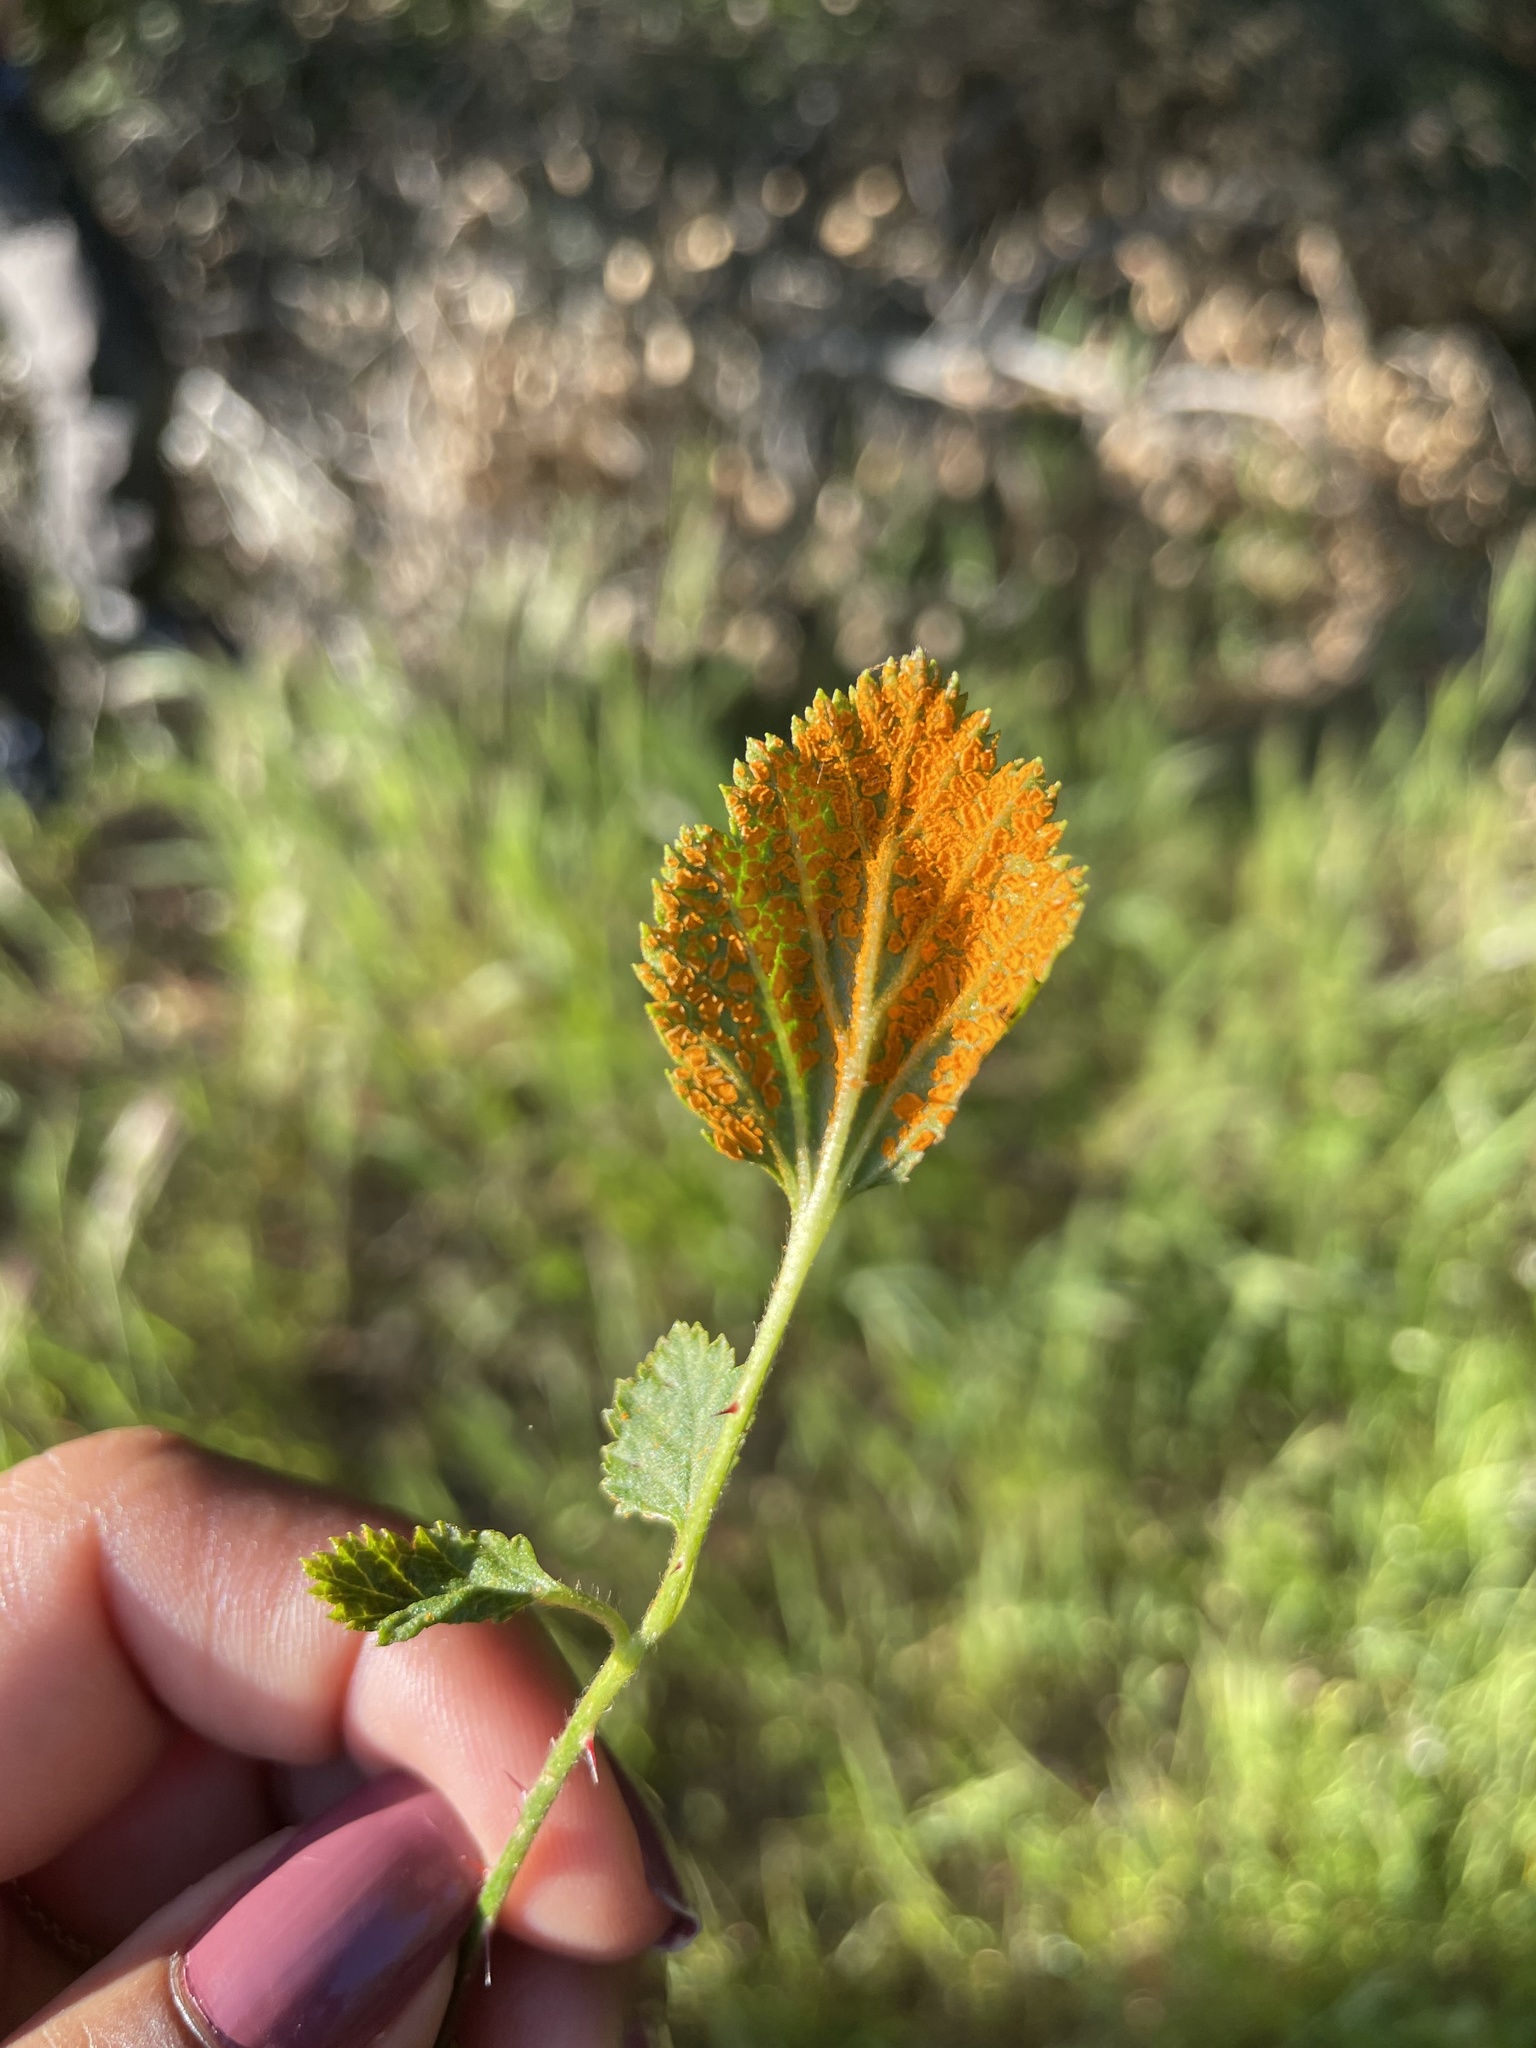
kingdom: Fungi
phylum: Basidiomycota
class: Pucciniomycetes
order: Pucciniales
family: Phragmidiaceae
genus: Arthuriomyces
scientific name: Arthuriomyces peckianus
